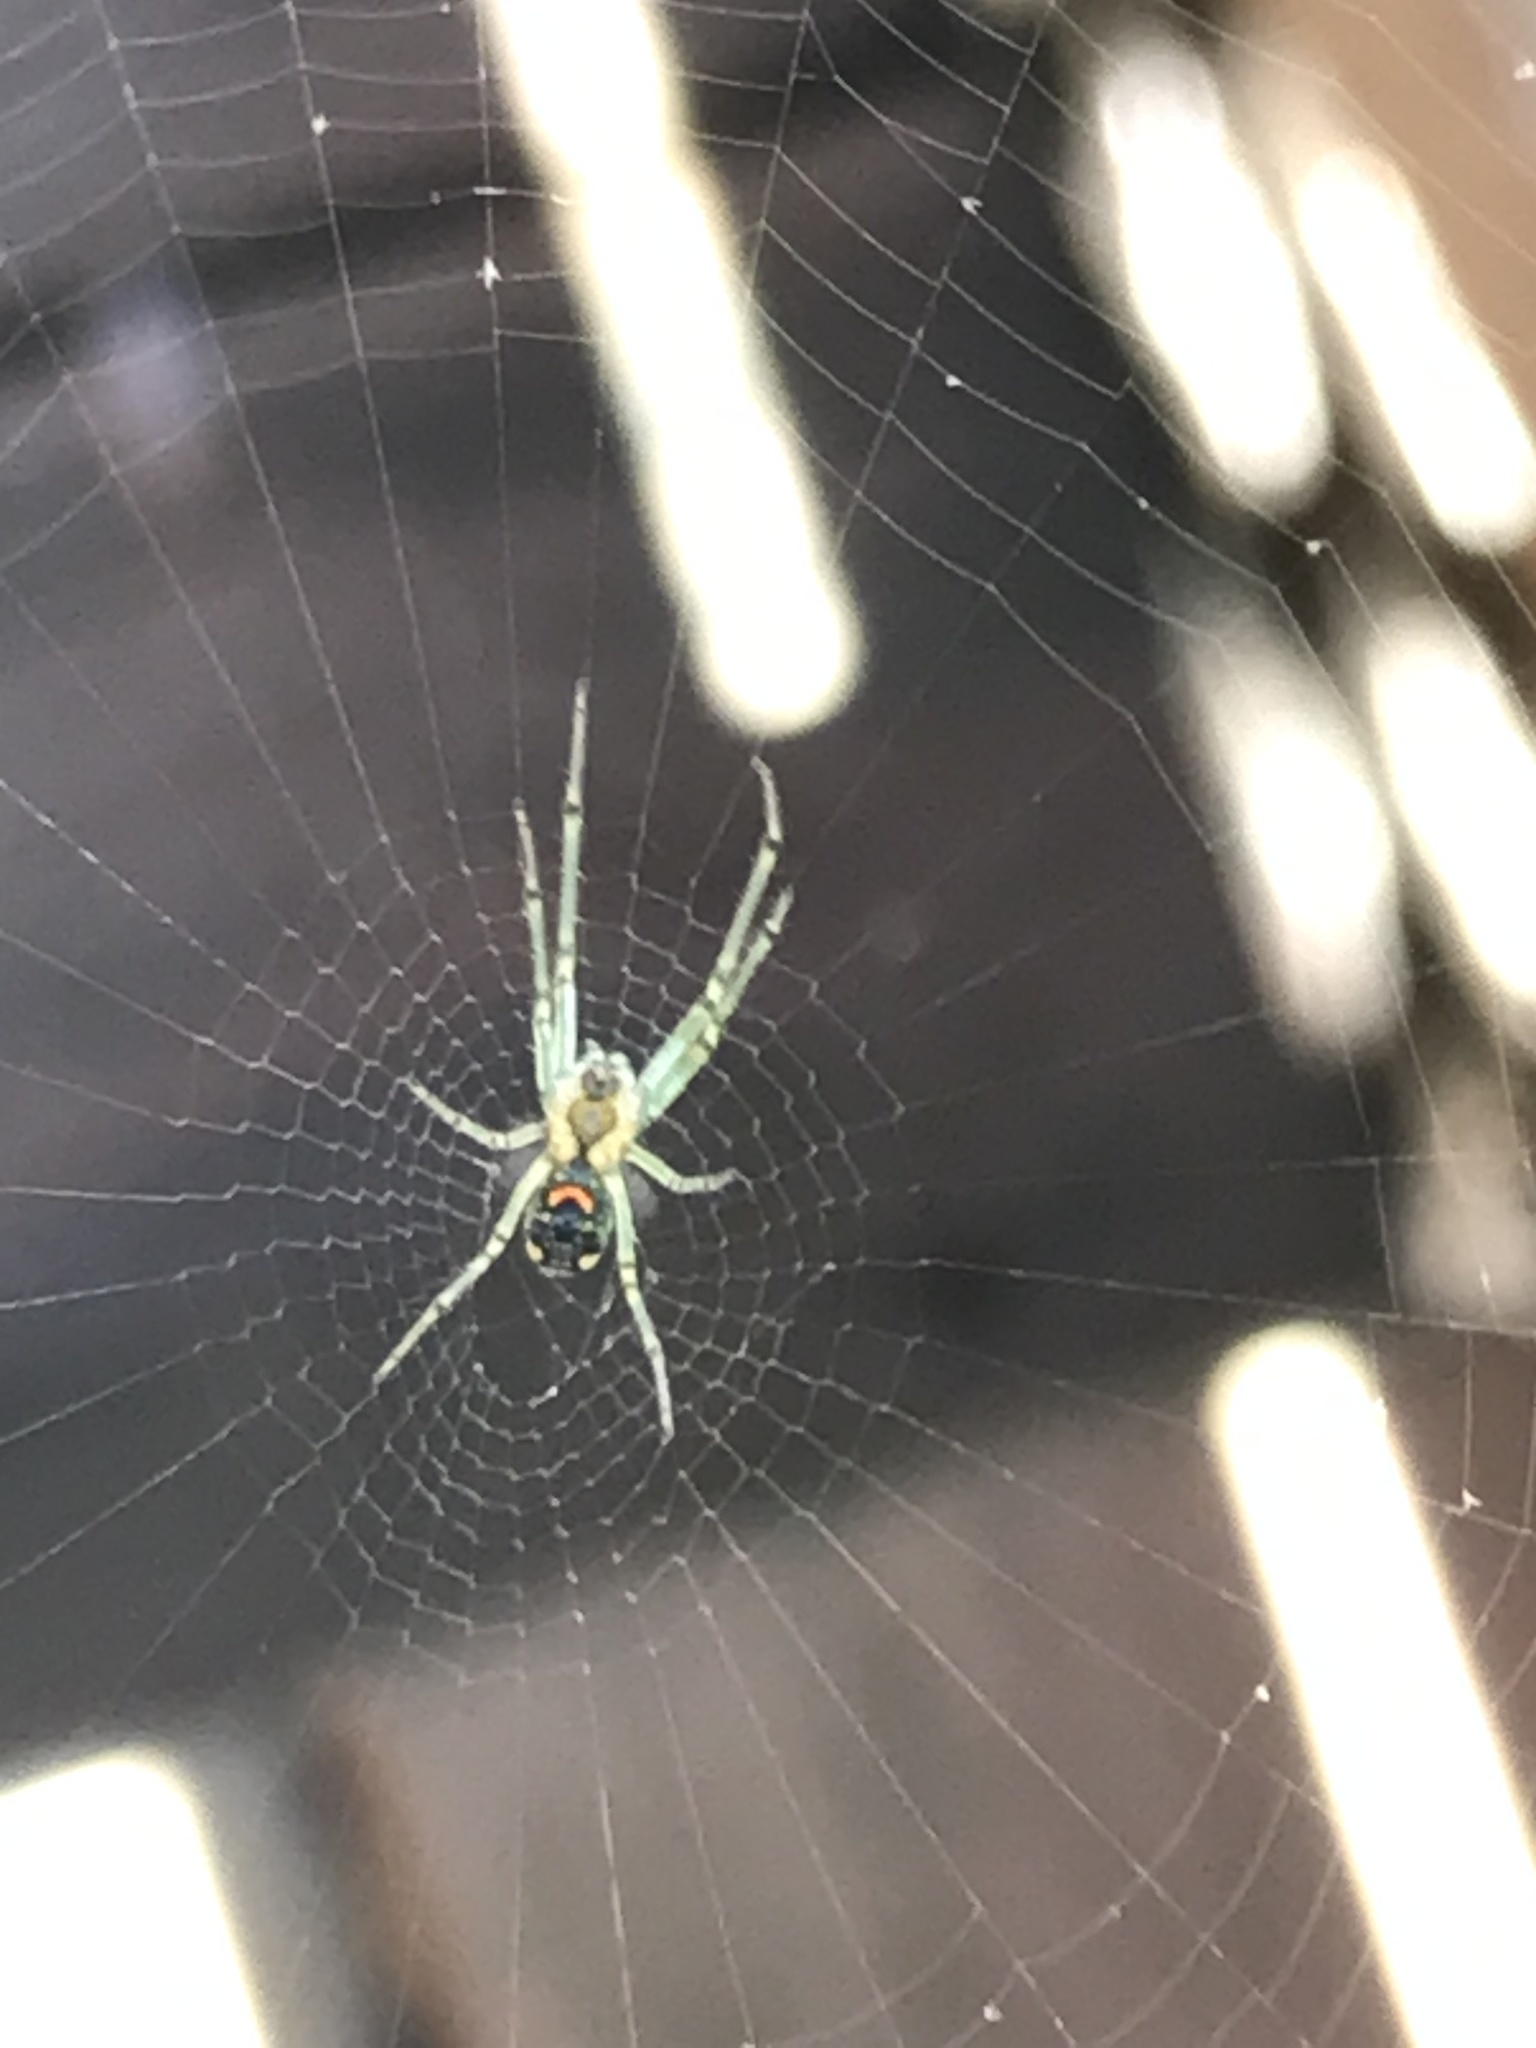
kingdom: Animalia
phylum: Arthropoda
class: Arachnida
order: Araneae
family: Tetragnathidae
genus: Leucauge
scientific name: Leucauge venusta
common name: Longjawed orb weavers
